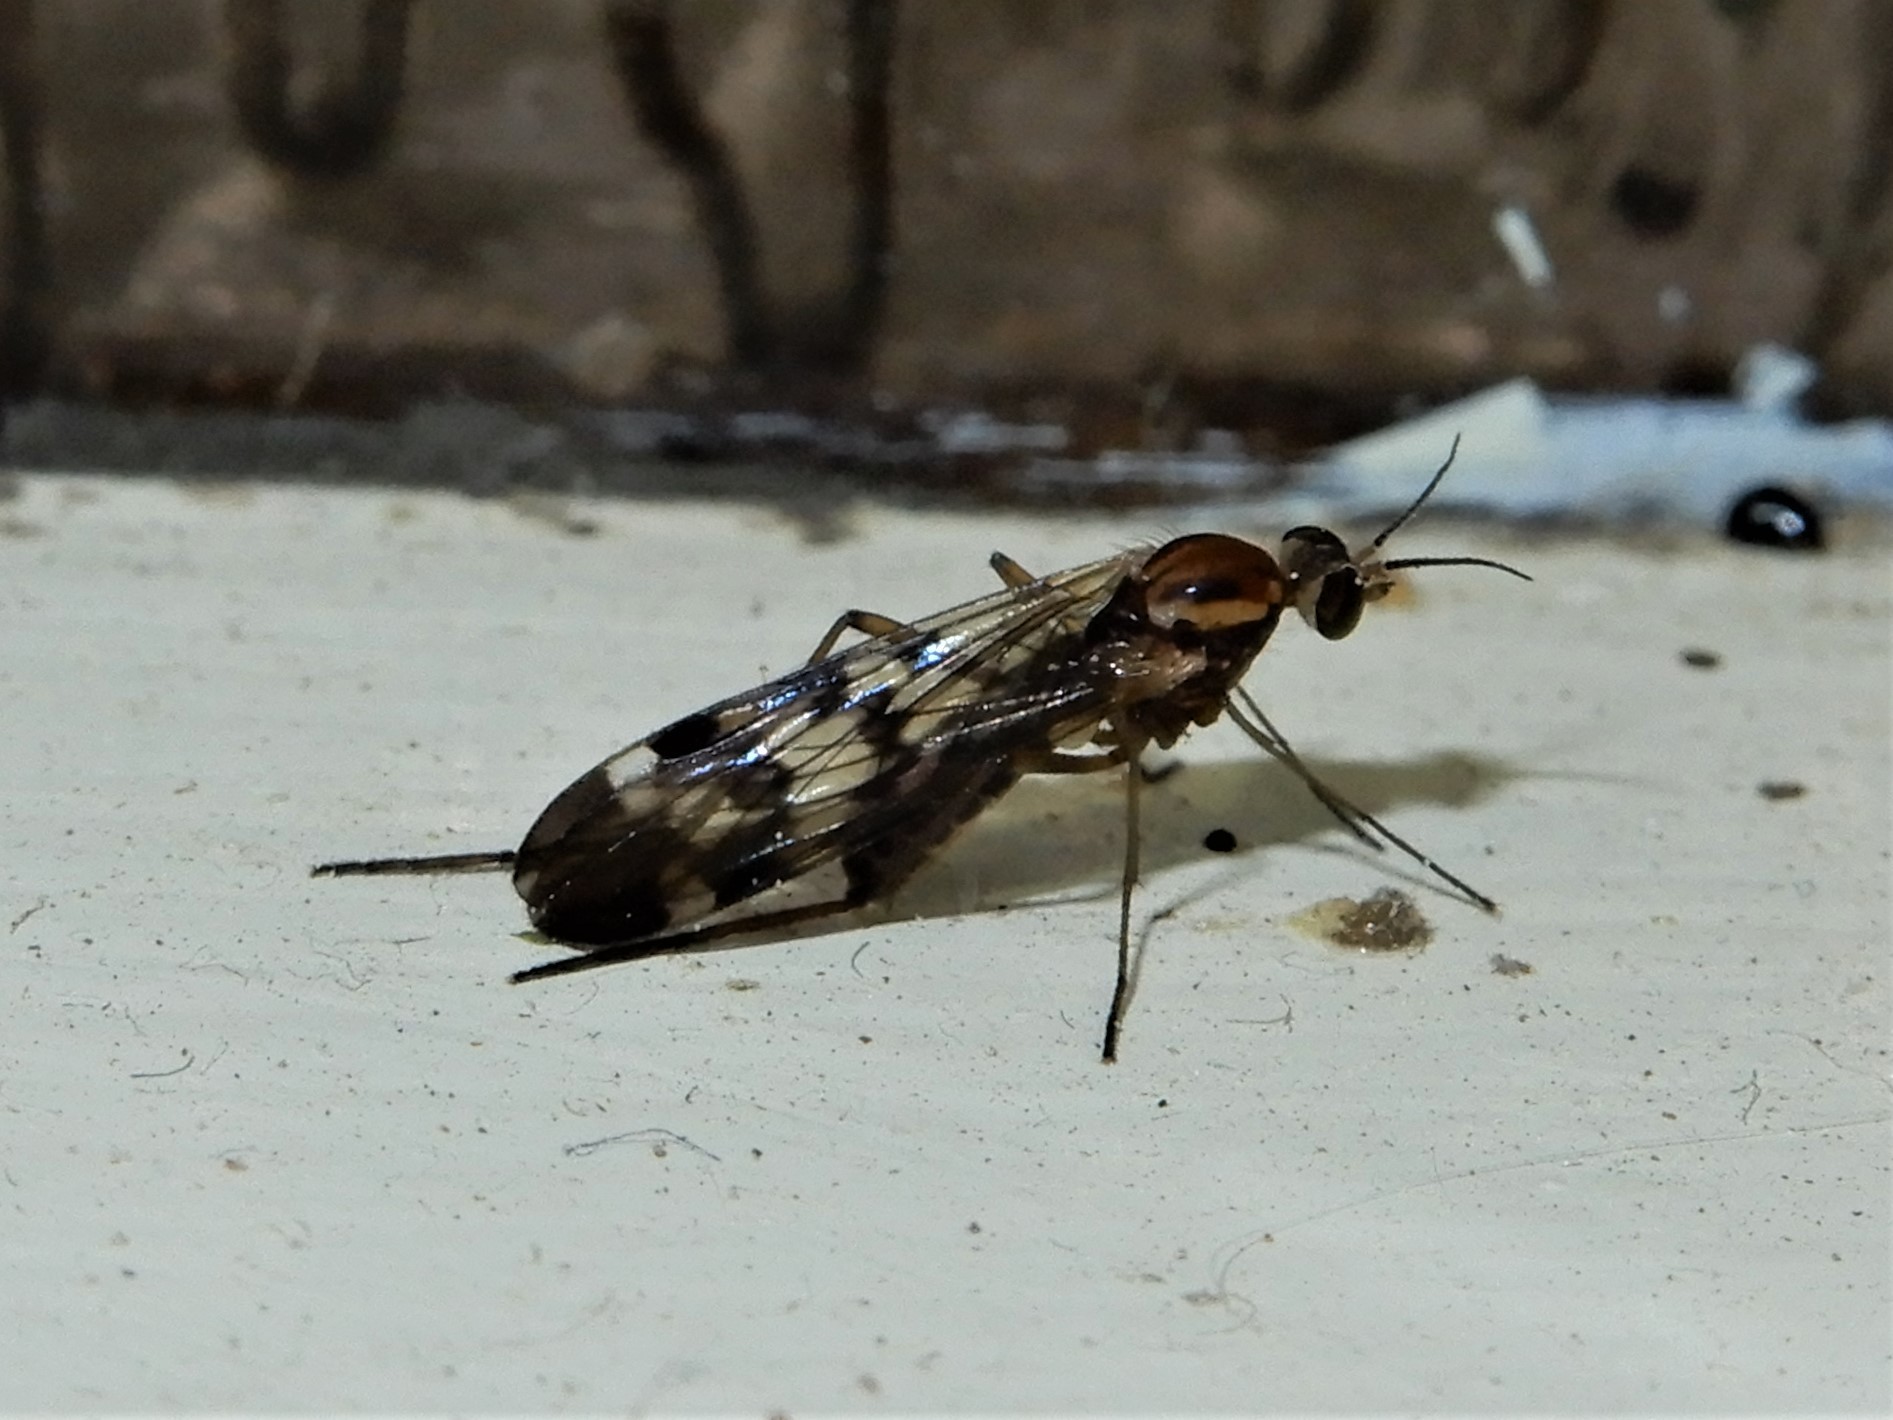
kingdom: Animalia
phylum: Arthropoda
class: Insecta
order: Diptera
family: Anisopodidae
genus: Sylvicola
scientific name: Sylvicola notatus
